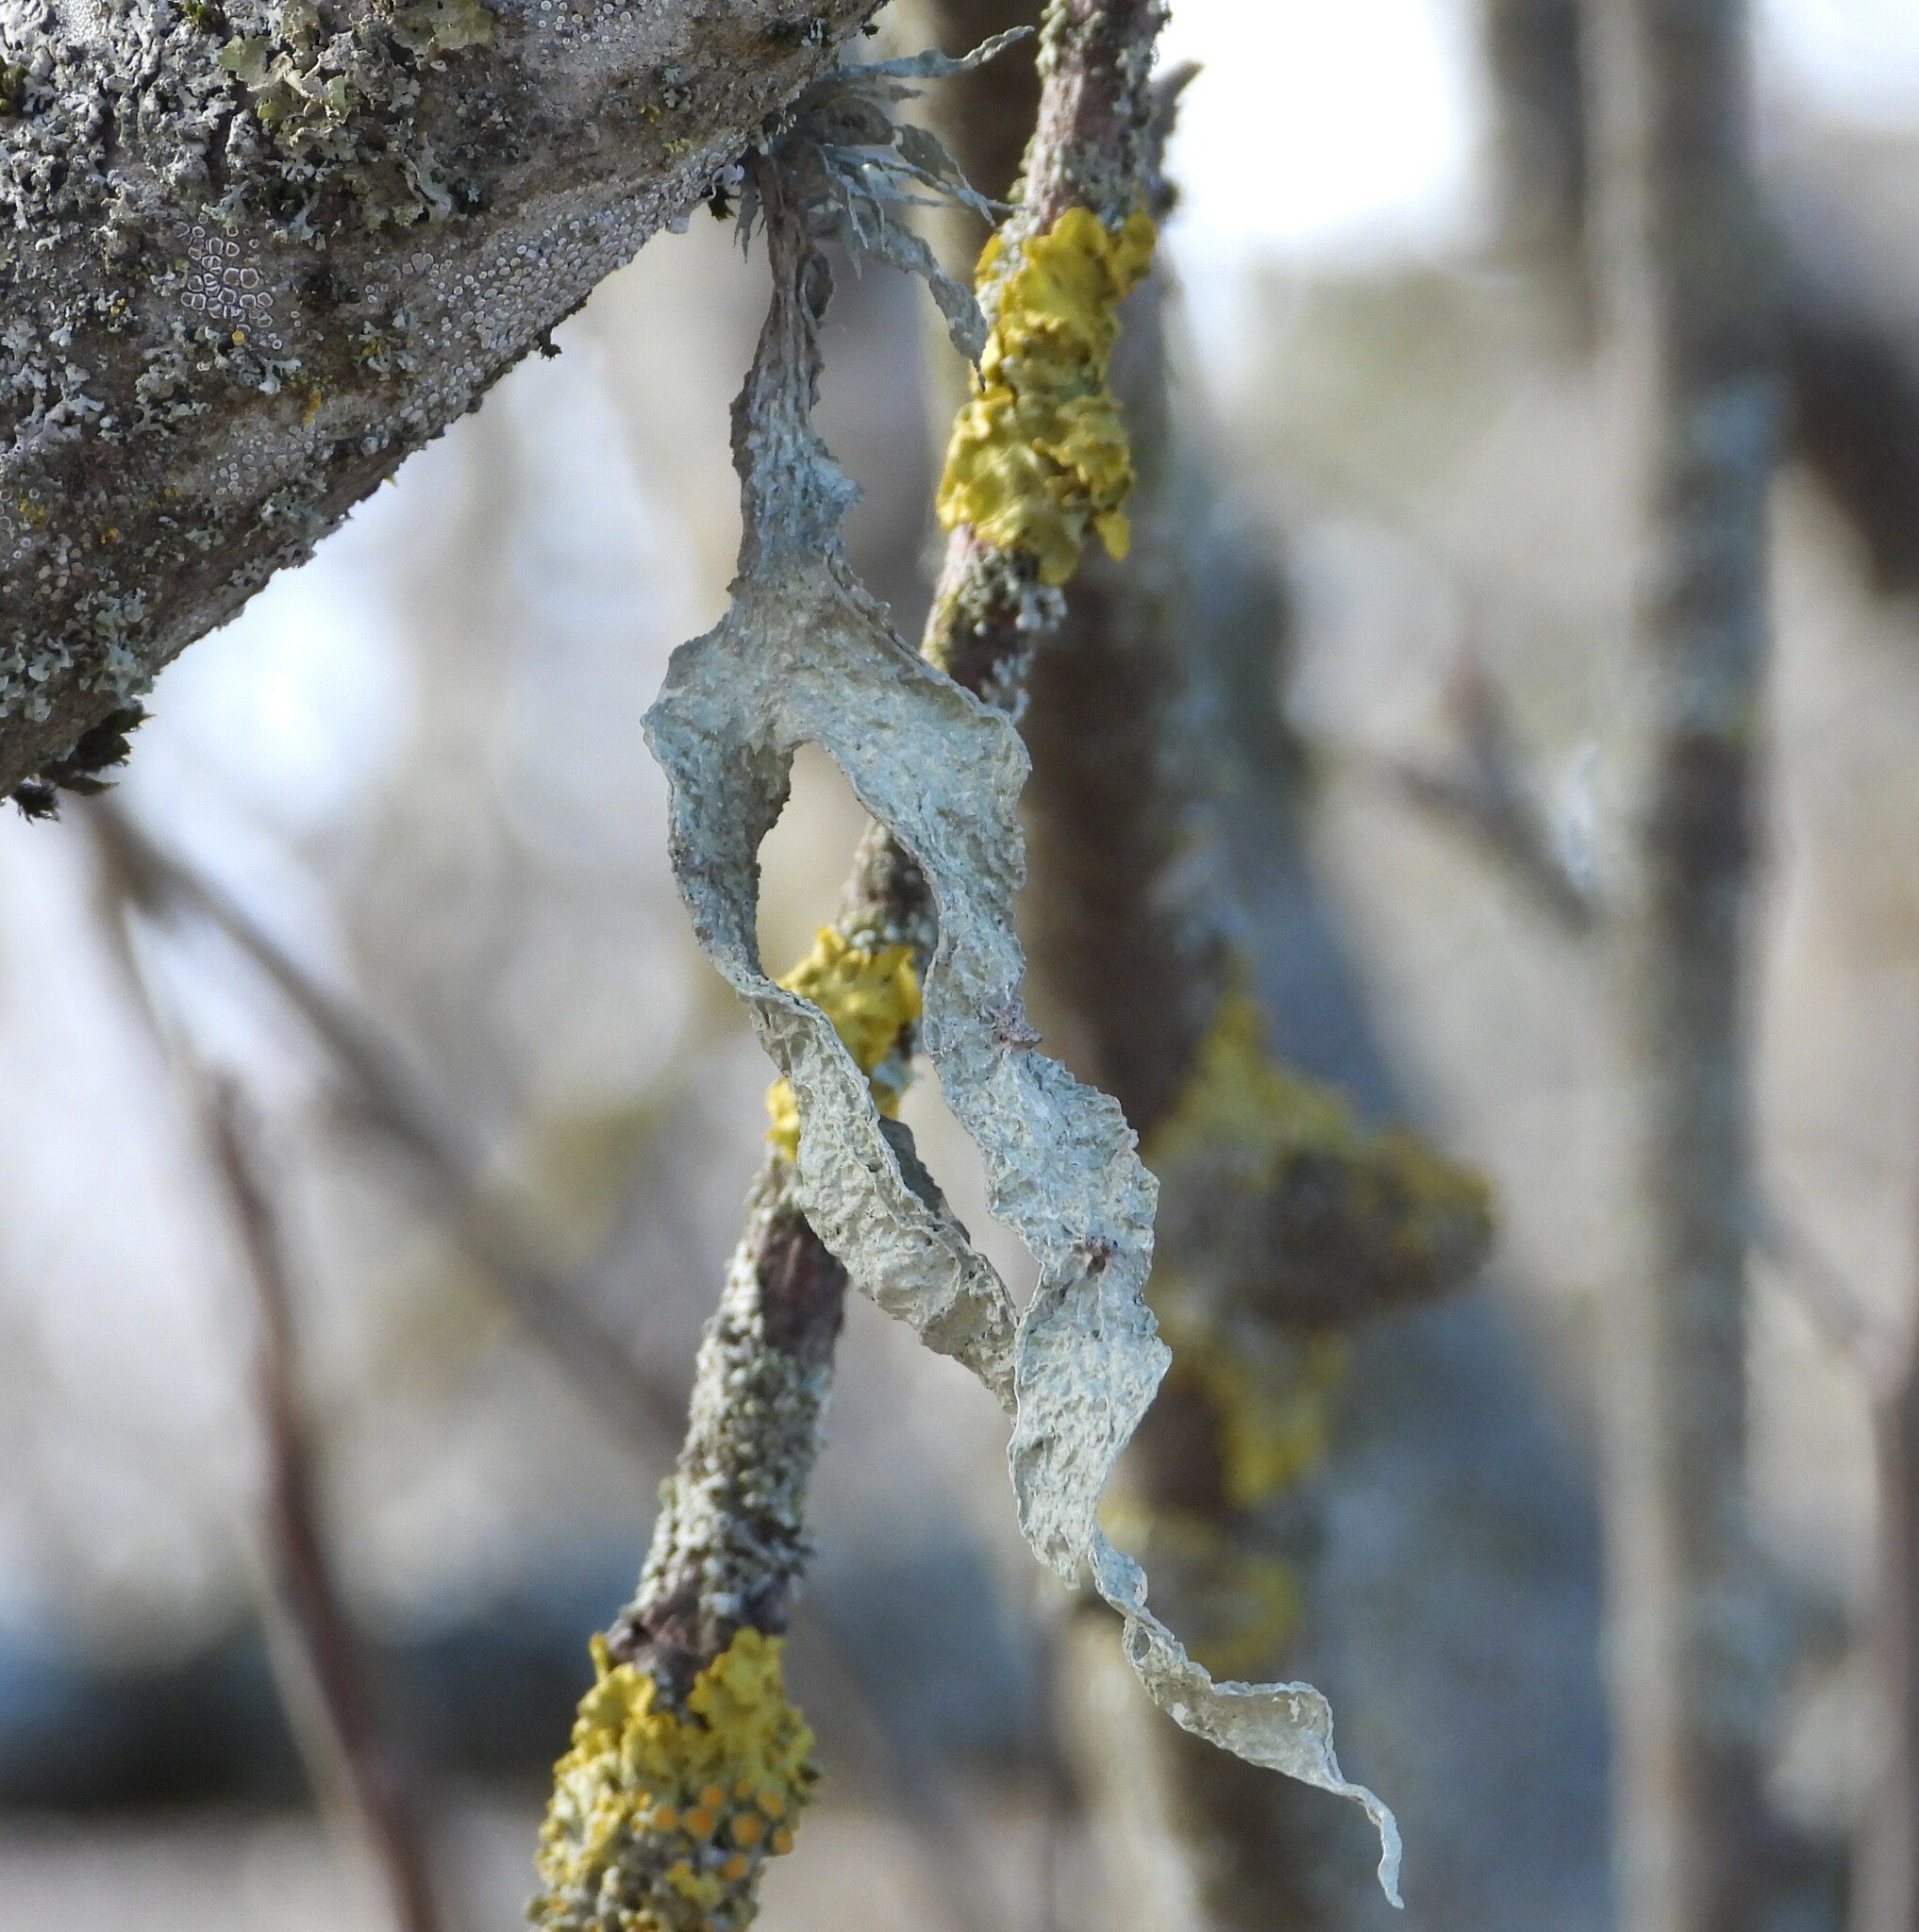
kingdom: Fungi
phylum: Ascomycota
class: Lecanoromycetes
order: Lecanorales
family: Ramalinaceae
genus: Ramalina
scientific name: Ramalina fraxinea
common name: Cartilage lichen
